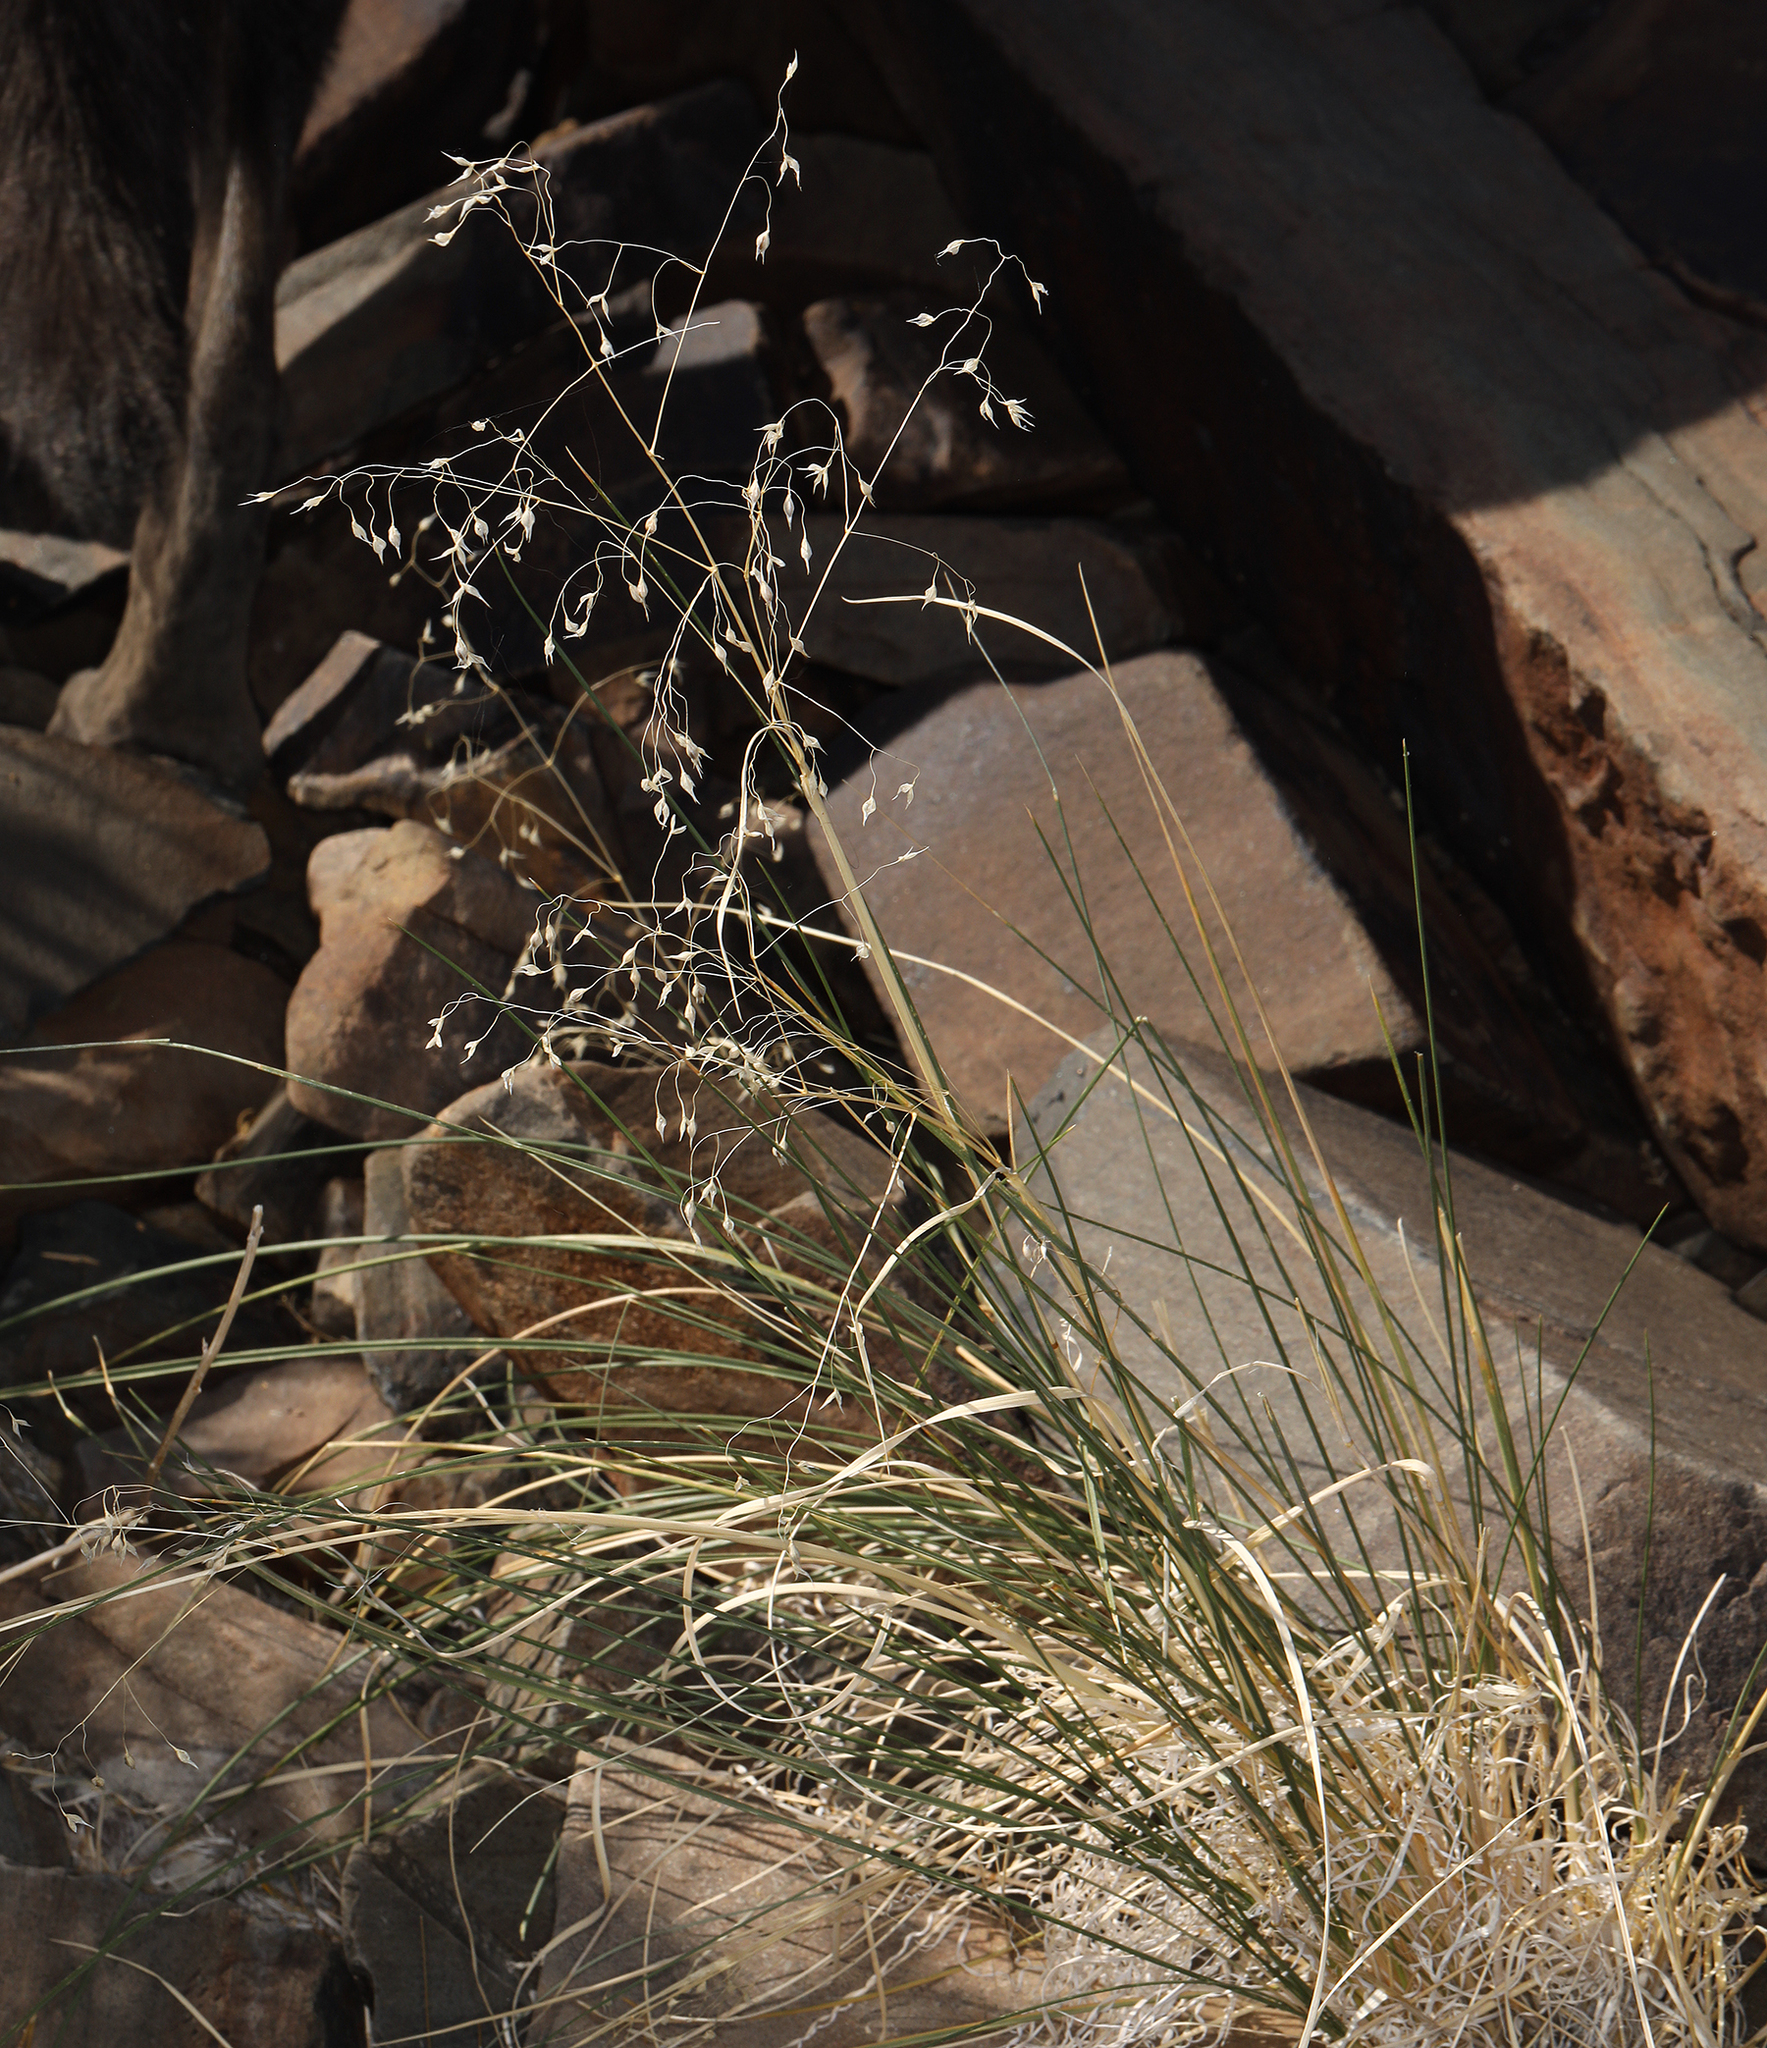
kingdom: Plantae
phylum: Tracheophyta
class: Liliopsida
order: Poales
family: Poaceae
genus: Eriocoma
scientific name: Eriocoma hymenoides
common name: Indian mountain ricegrass
